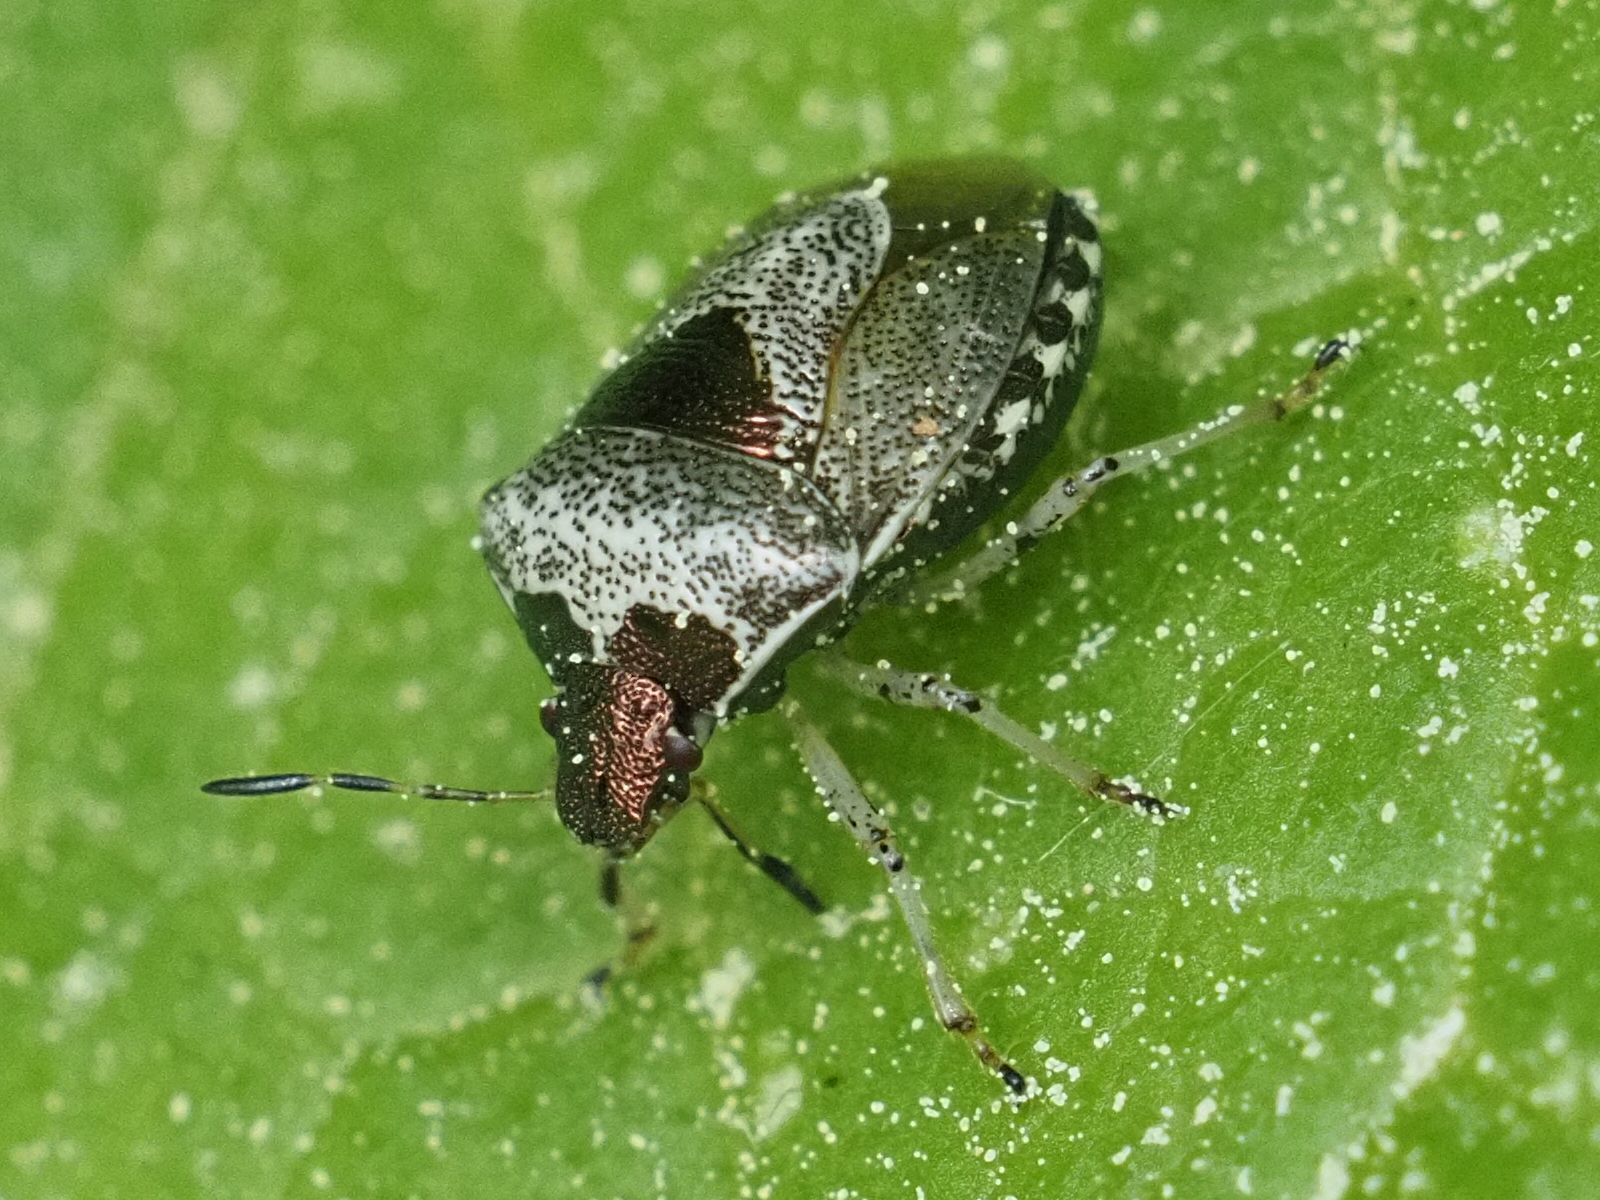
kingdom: Animalia
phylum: Arthropoda
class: Insecta
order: Hemiptera
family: Pentatomidae
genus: Eysarcoris
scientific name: Eysarcoris venustissimus
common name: Woundwort shieldbug
